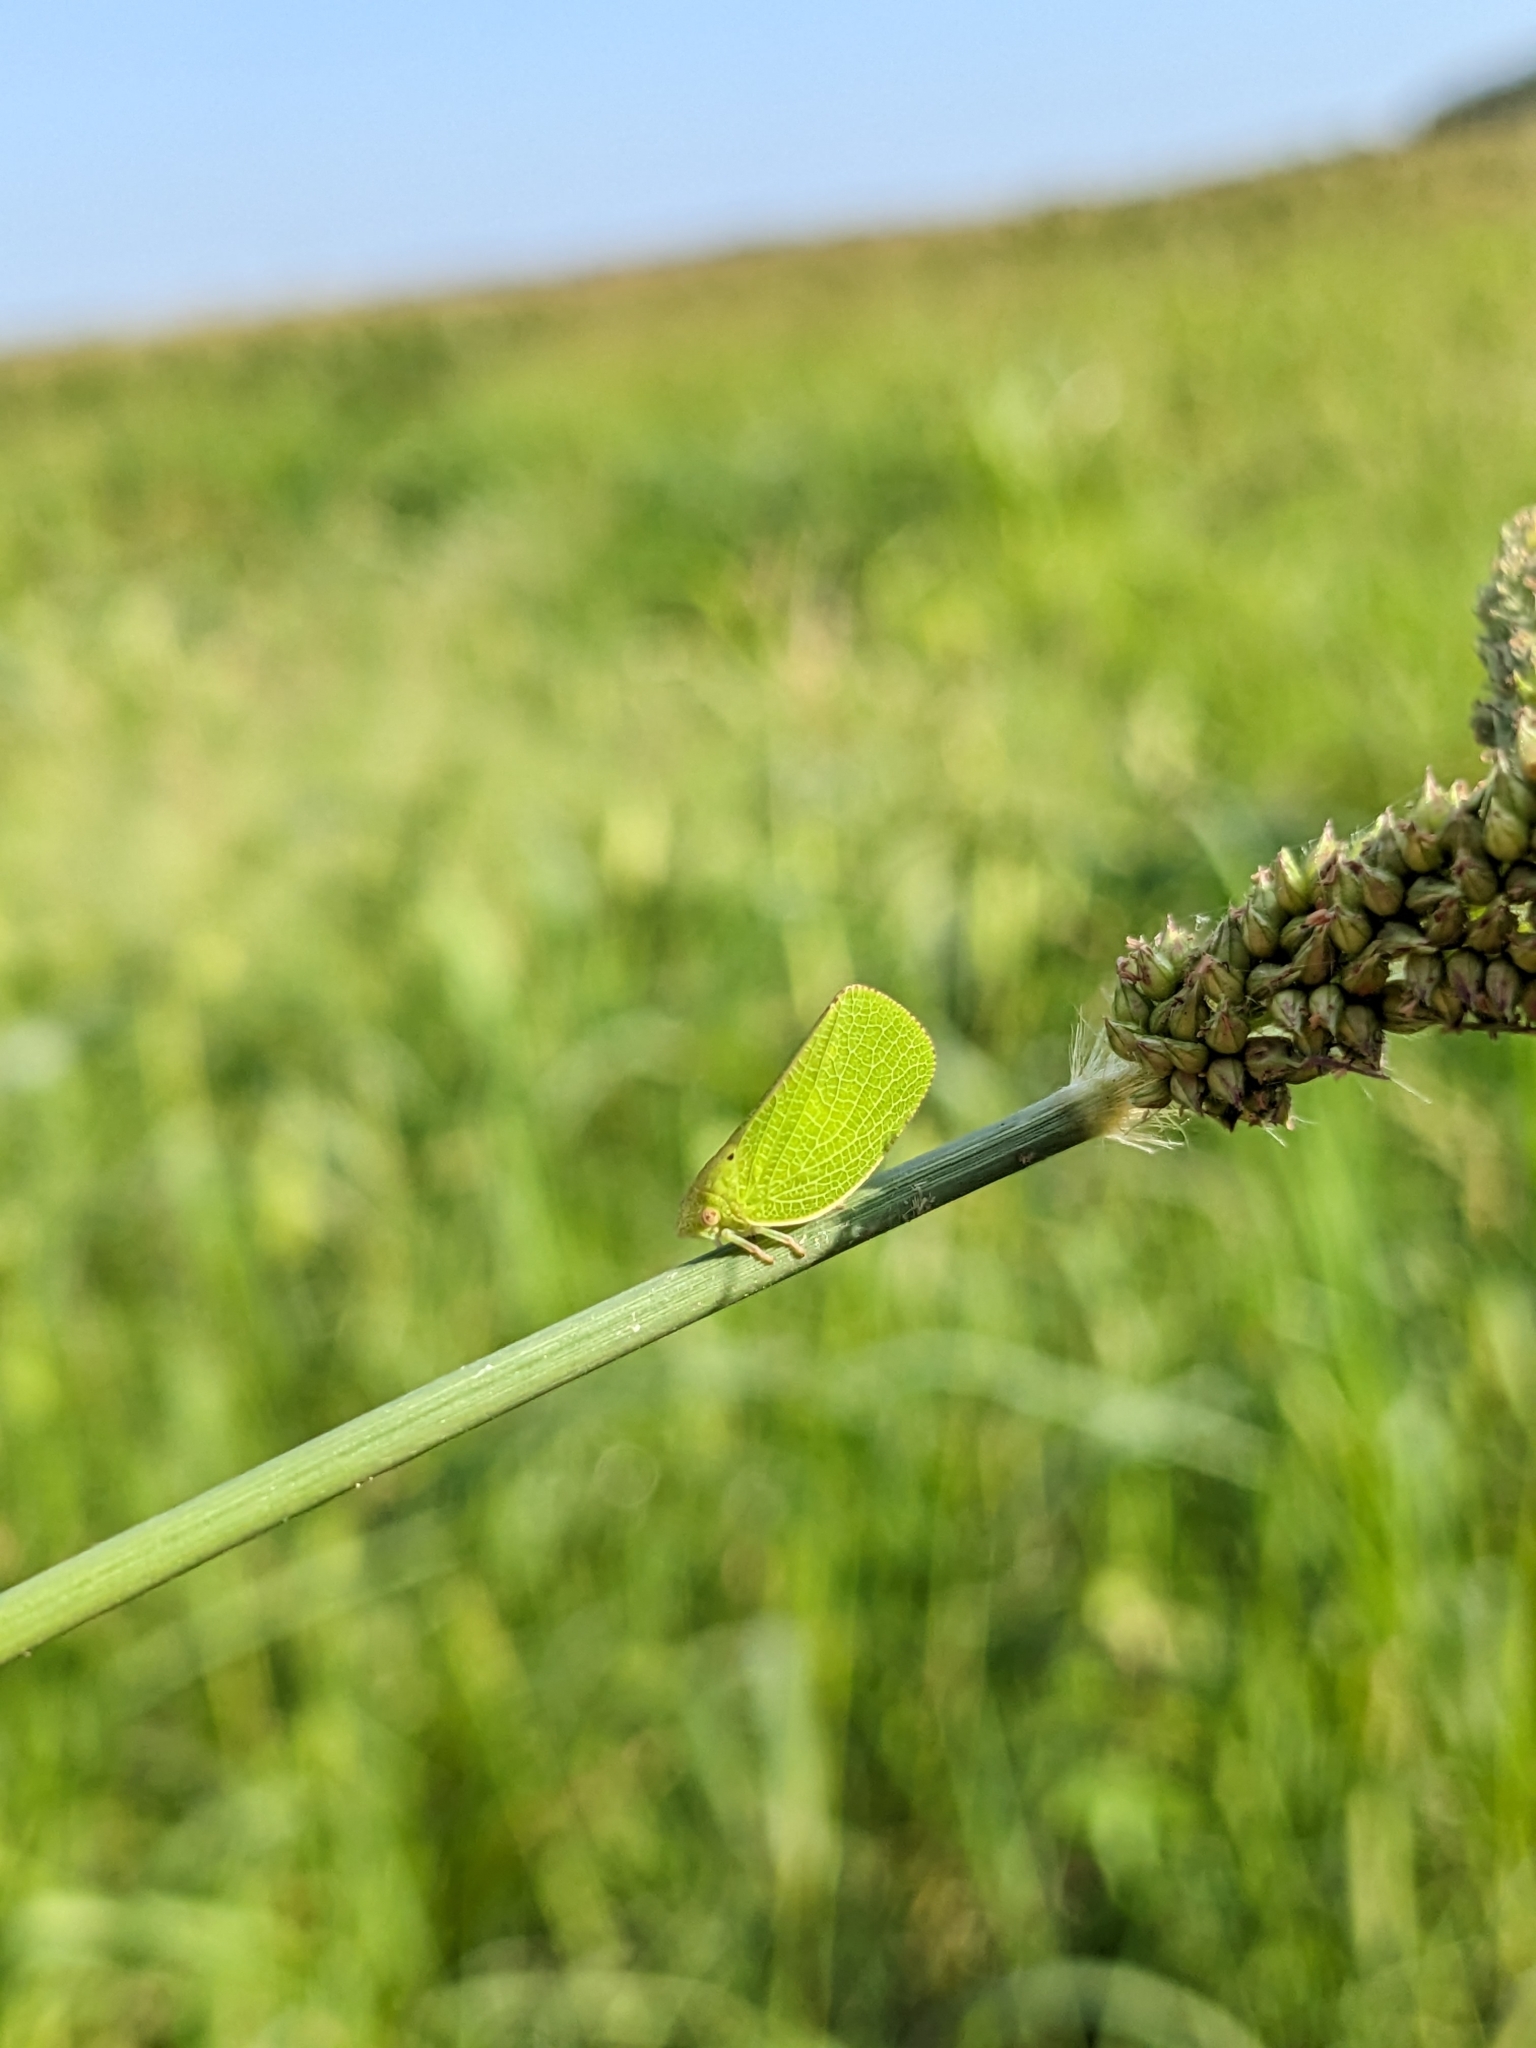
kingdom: Animalia
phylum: Arthropoda
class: Insecta
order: Hemiptera
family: Acanaloniidae
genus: Acanalonia
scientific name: Acanalonia conica
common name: Green cone-headed planthopper
